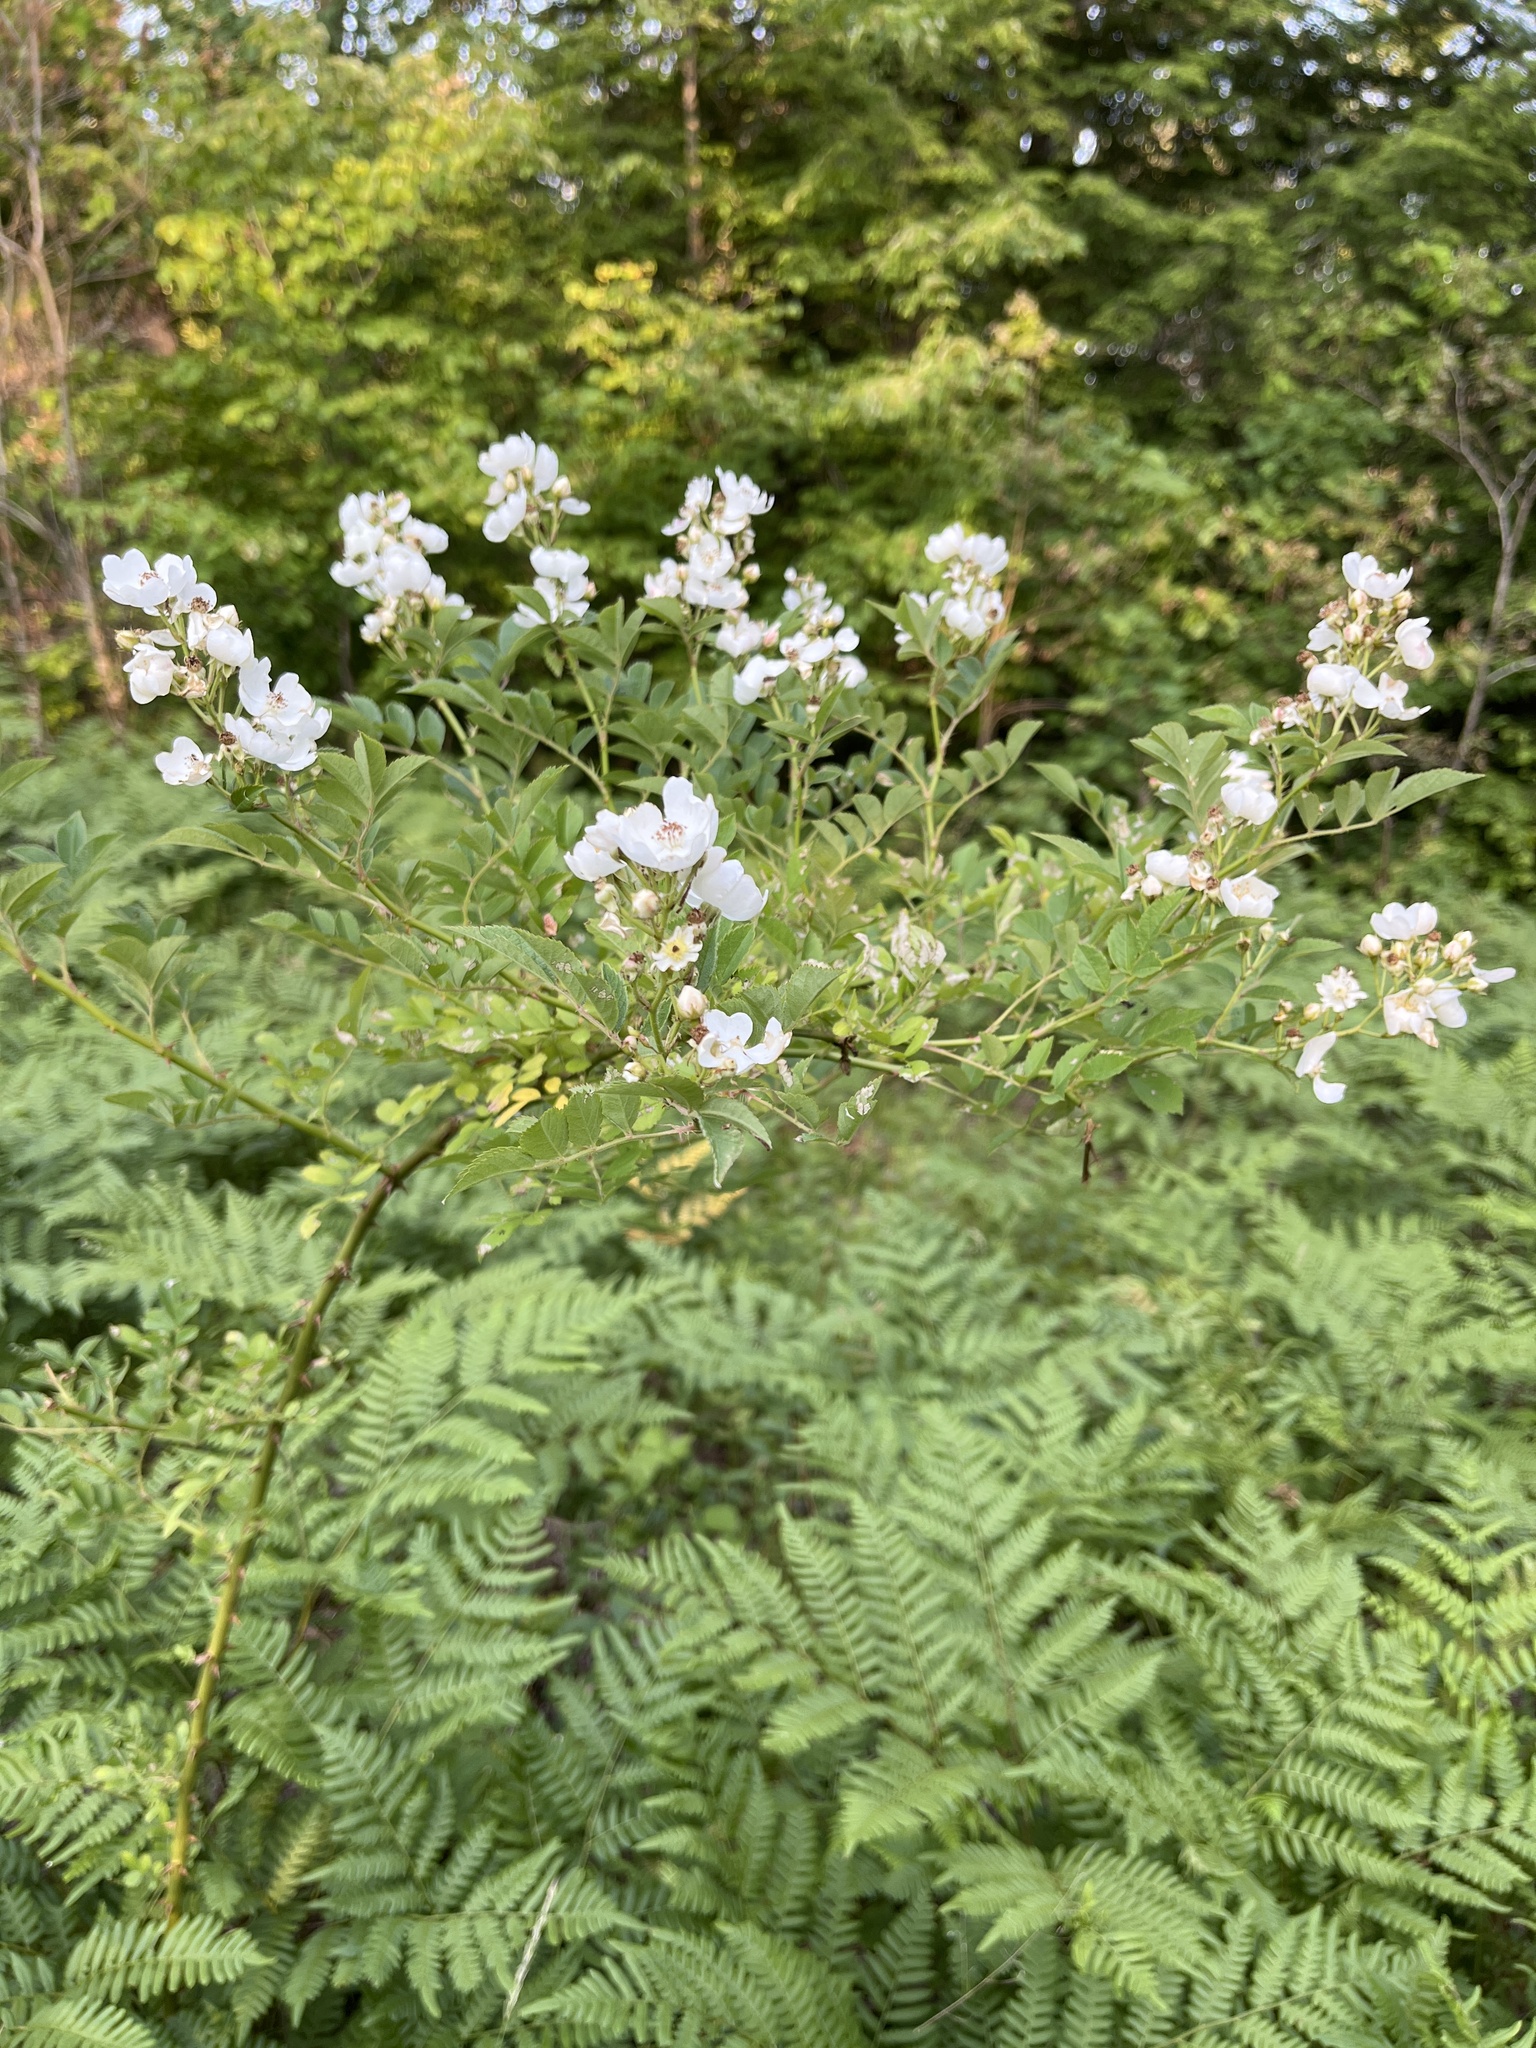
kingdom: Plantae
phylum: Tracheophyta
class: Magnoliopsida
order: Rosales
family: Rosaceae
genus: Rosa
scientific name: Rosa multiflora
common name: Multiflora rose
